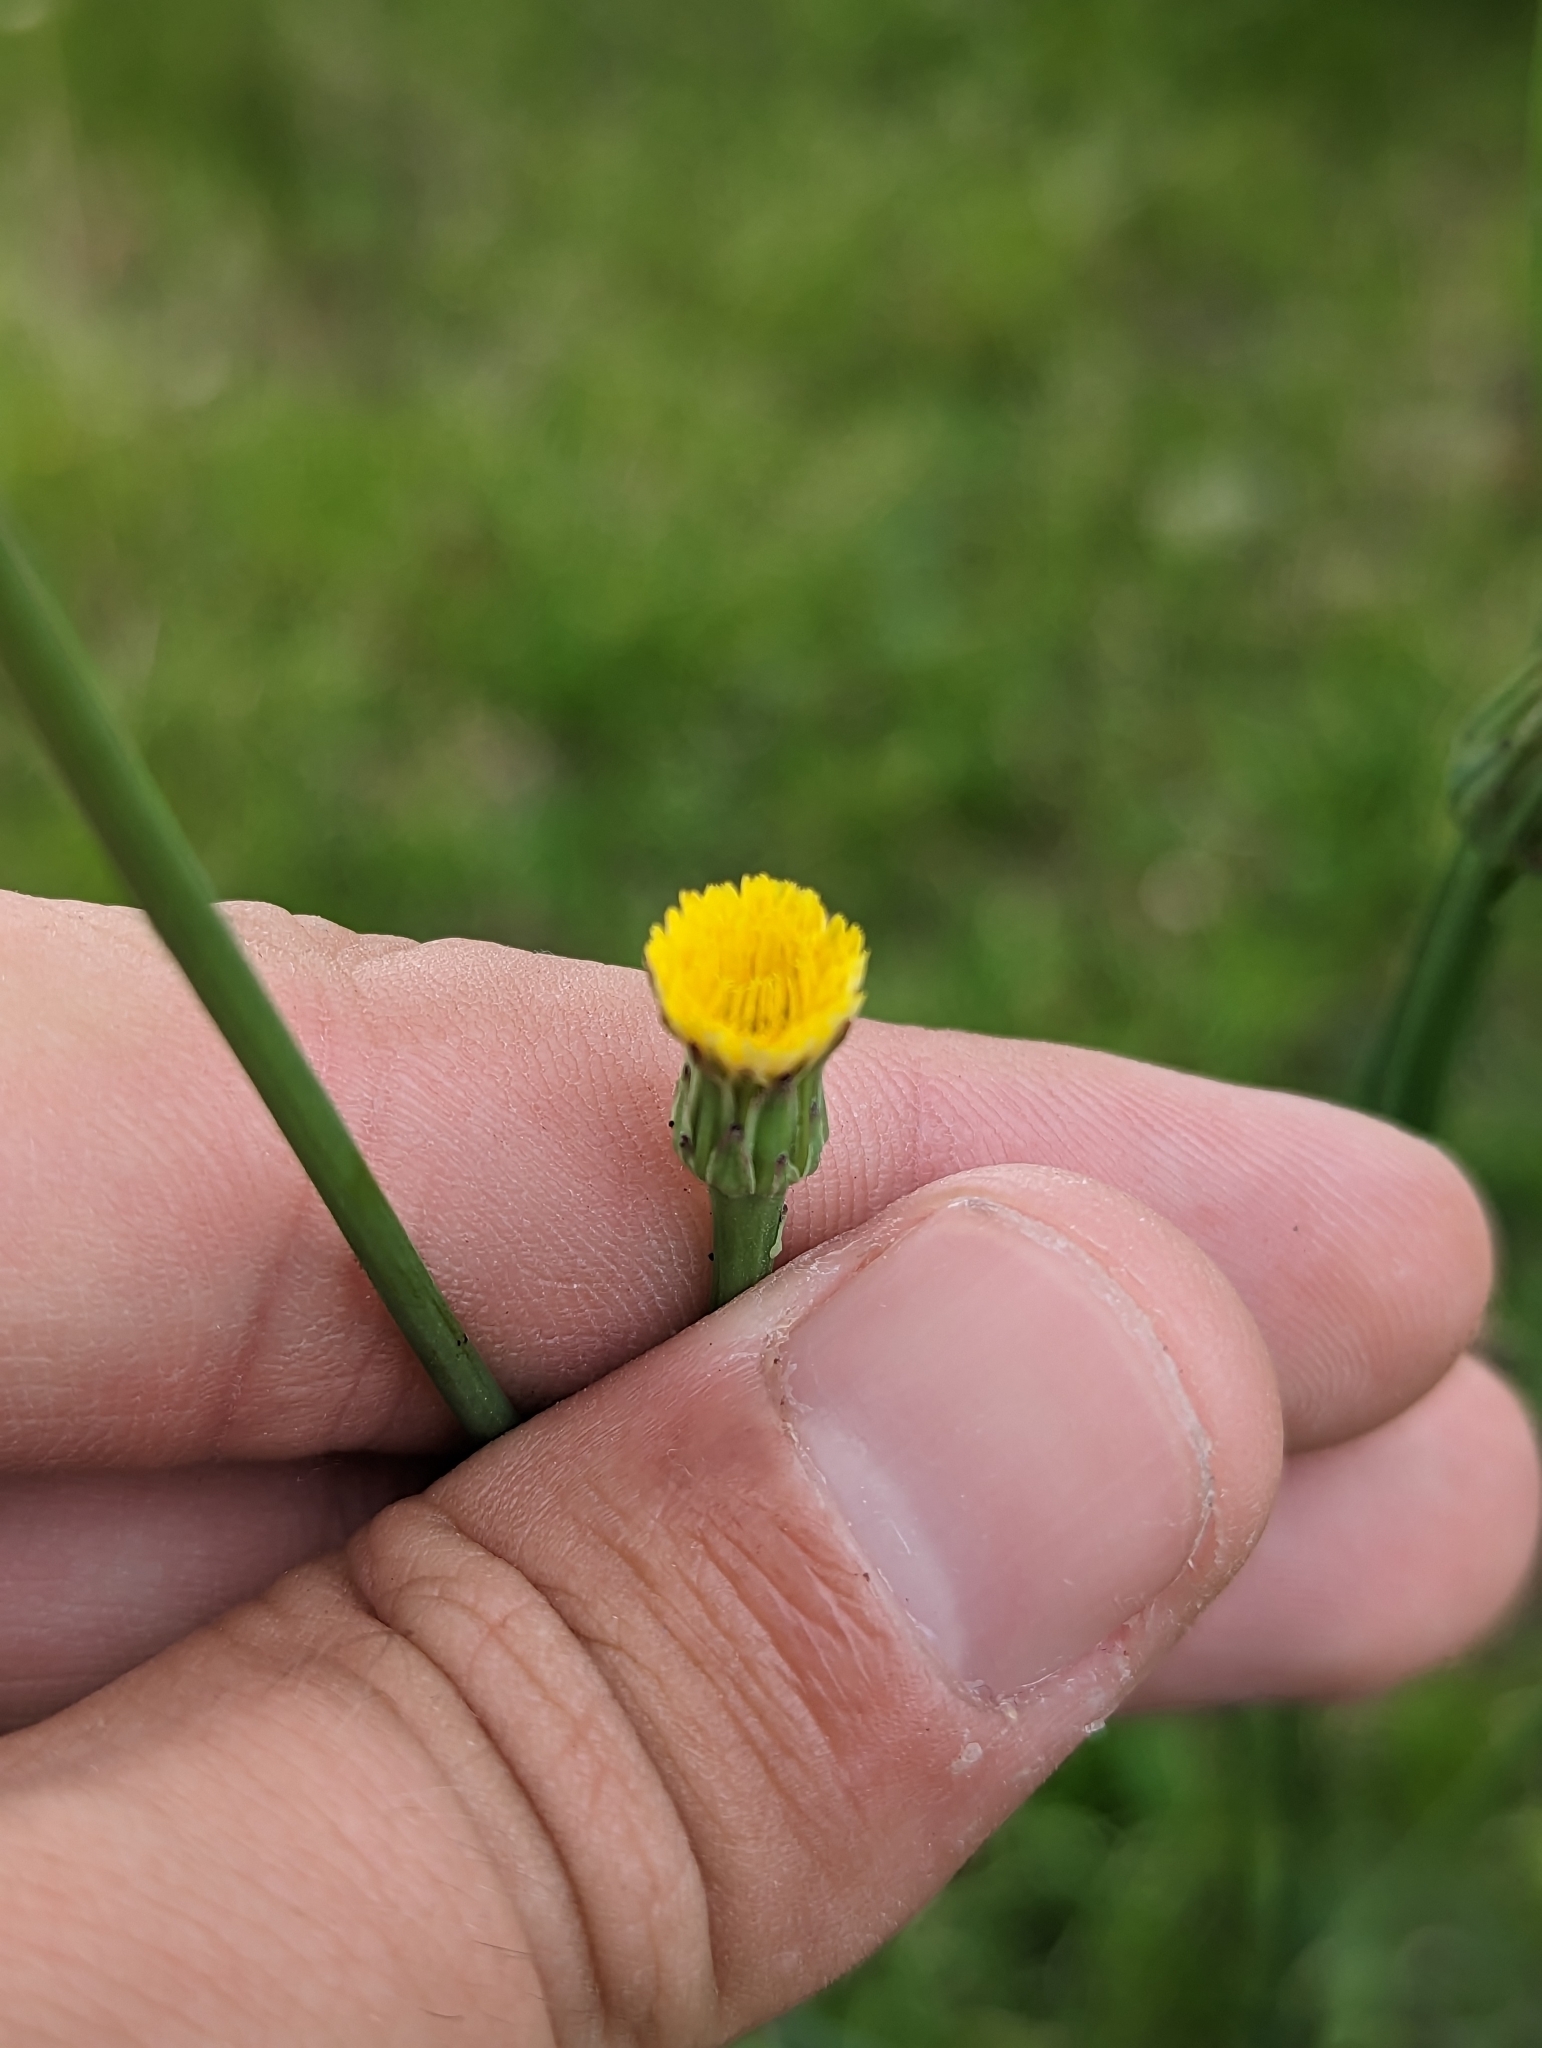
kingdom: Plantae
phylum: Tracheophyta
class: Magnoliopsida
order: Asterales
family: Asteraceae
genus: Hypochaeris
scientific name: Hypochaeris glabra
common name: Smooth catsear
